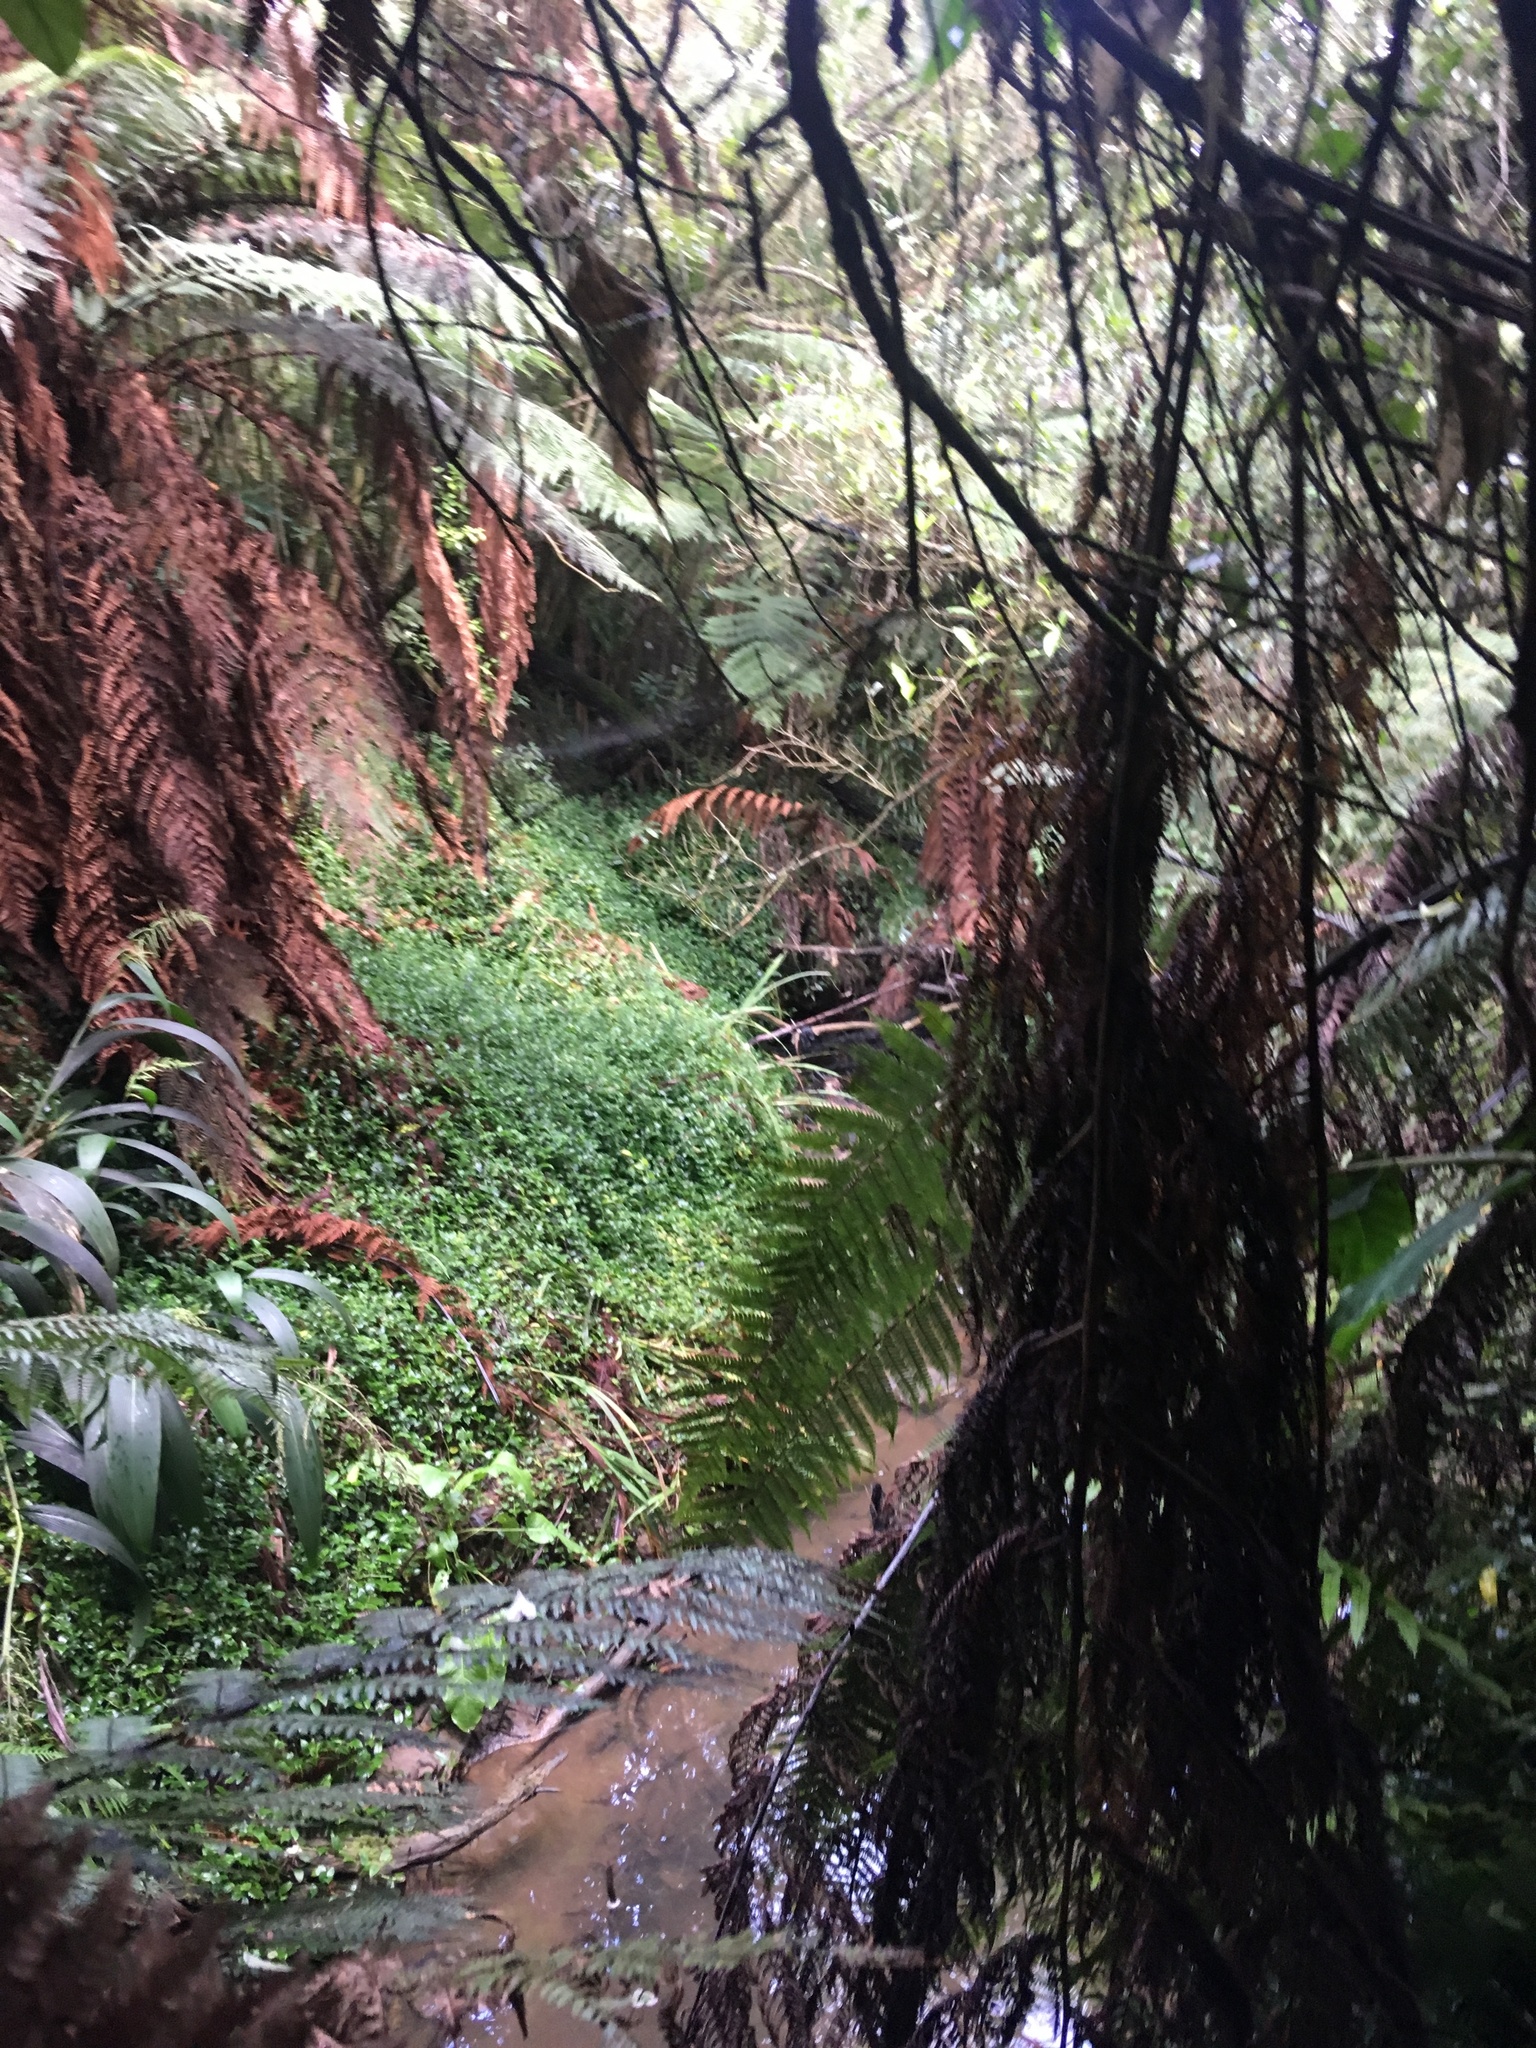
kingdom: Plantae
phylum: Tracheophyta
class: Liliopsida
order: Commelinales
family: Commelinaceae
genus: Tradescantia
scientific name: Tradescantia fluminensis
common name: Wandering-jew
